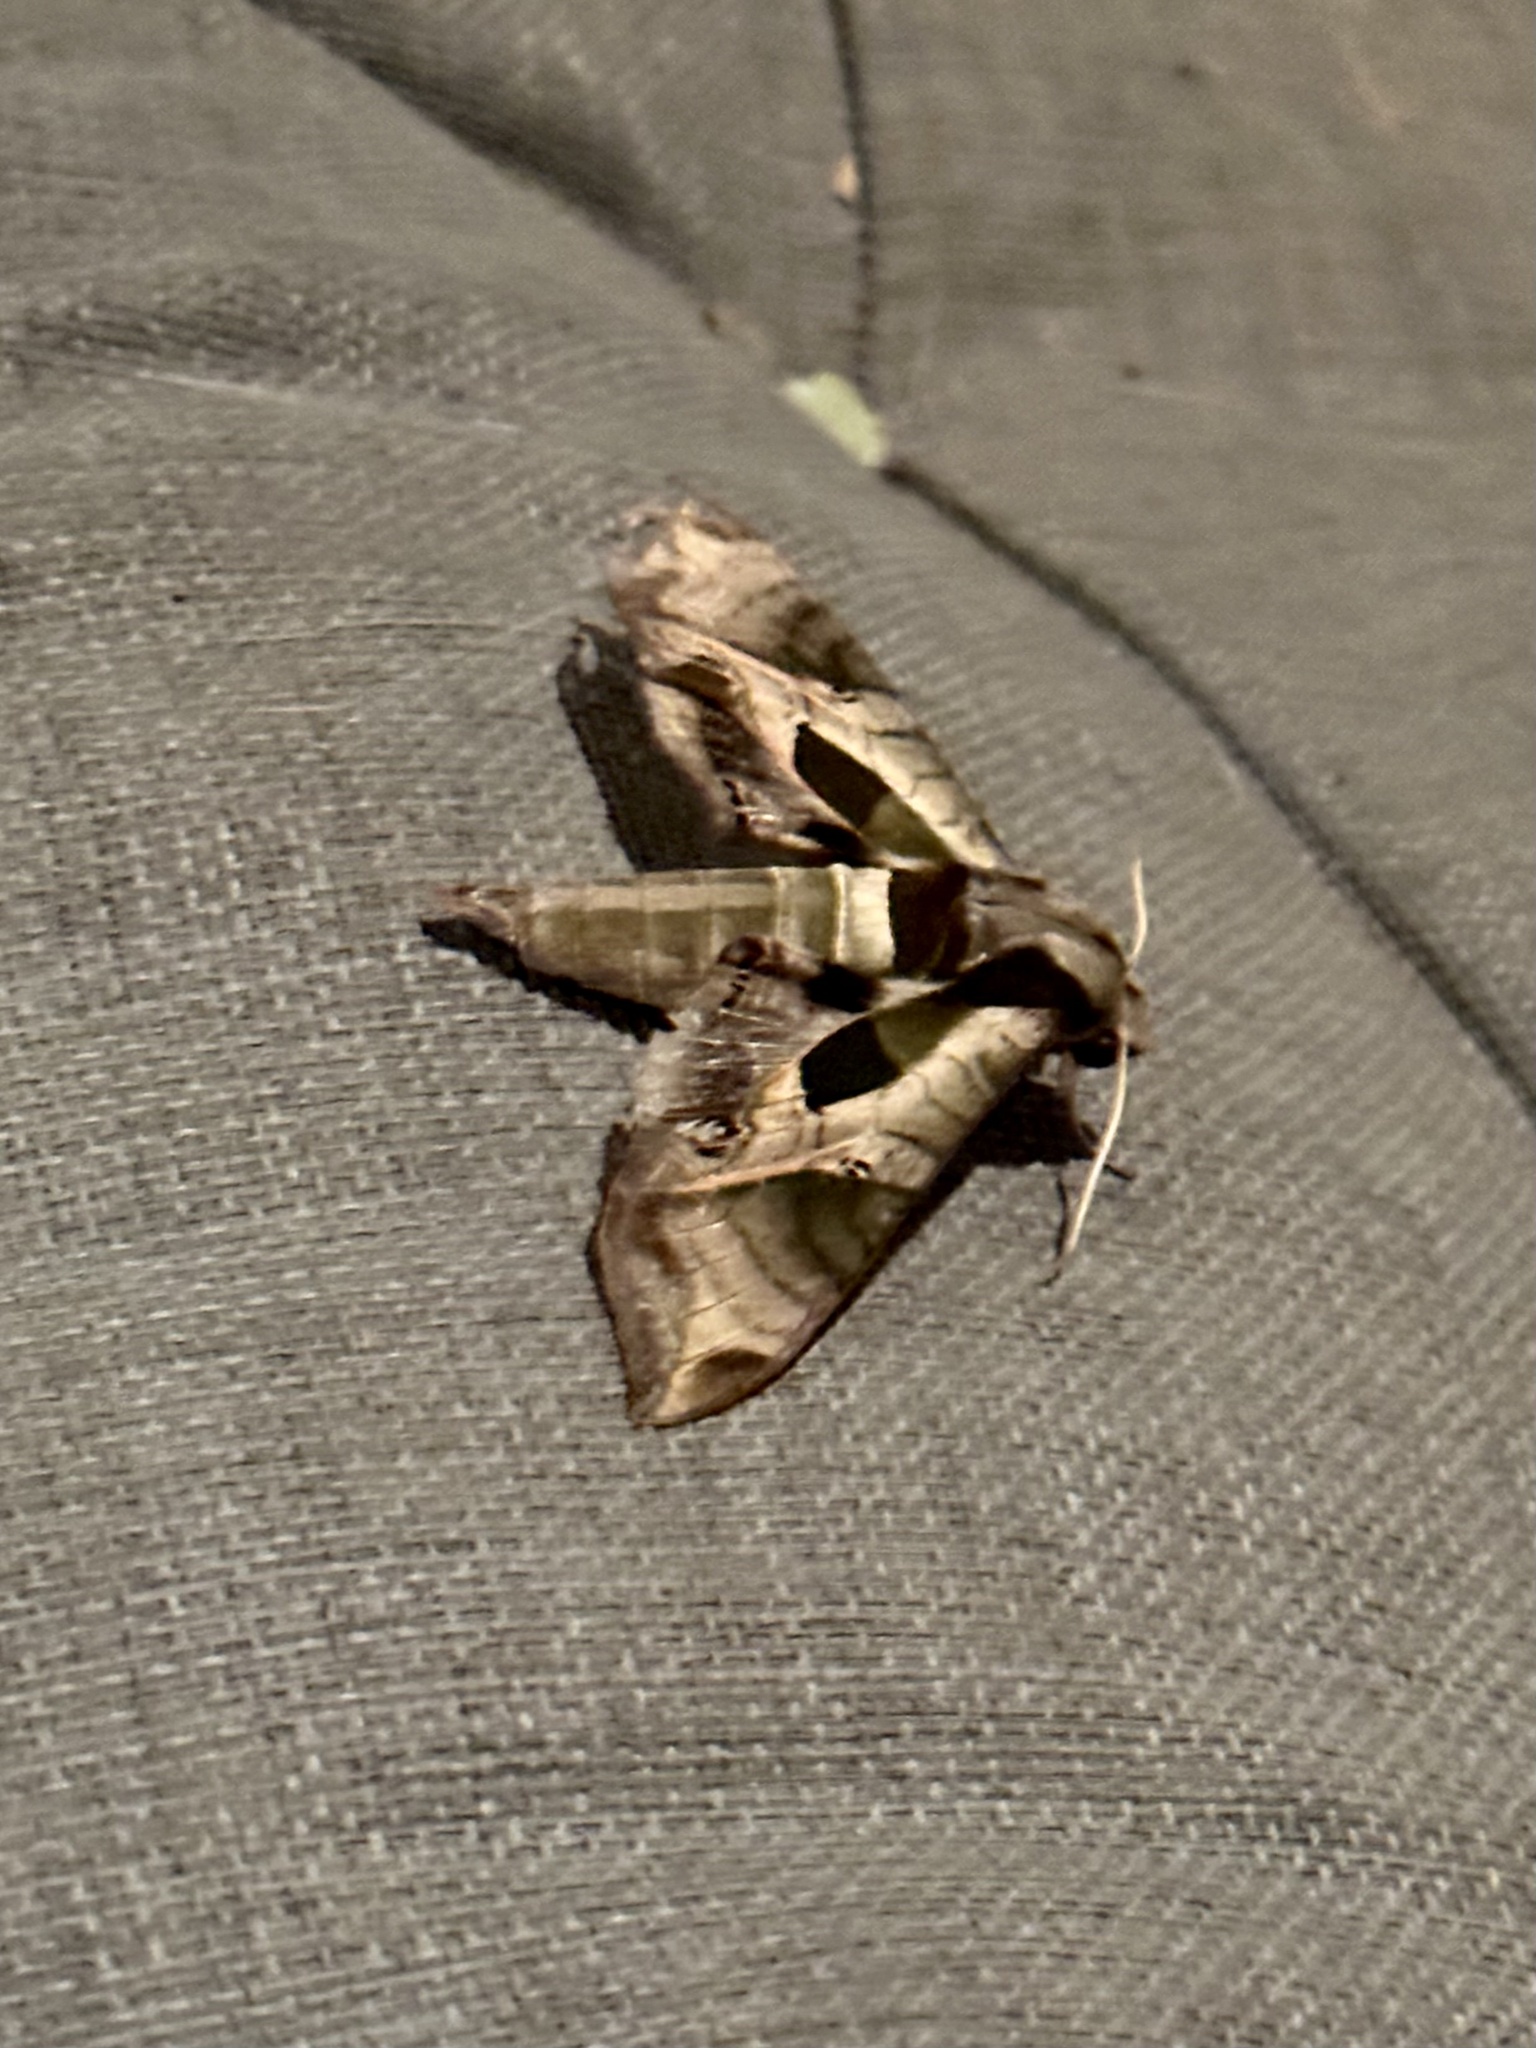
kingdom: Animalia
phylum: Arthropoda
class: Insecta
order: Lepidoptera
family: Sphingidae
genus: Eumorpha
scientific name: Eumorpha pandorus
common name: Pandora sphinx
